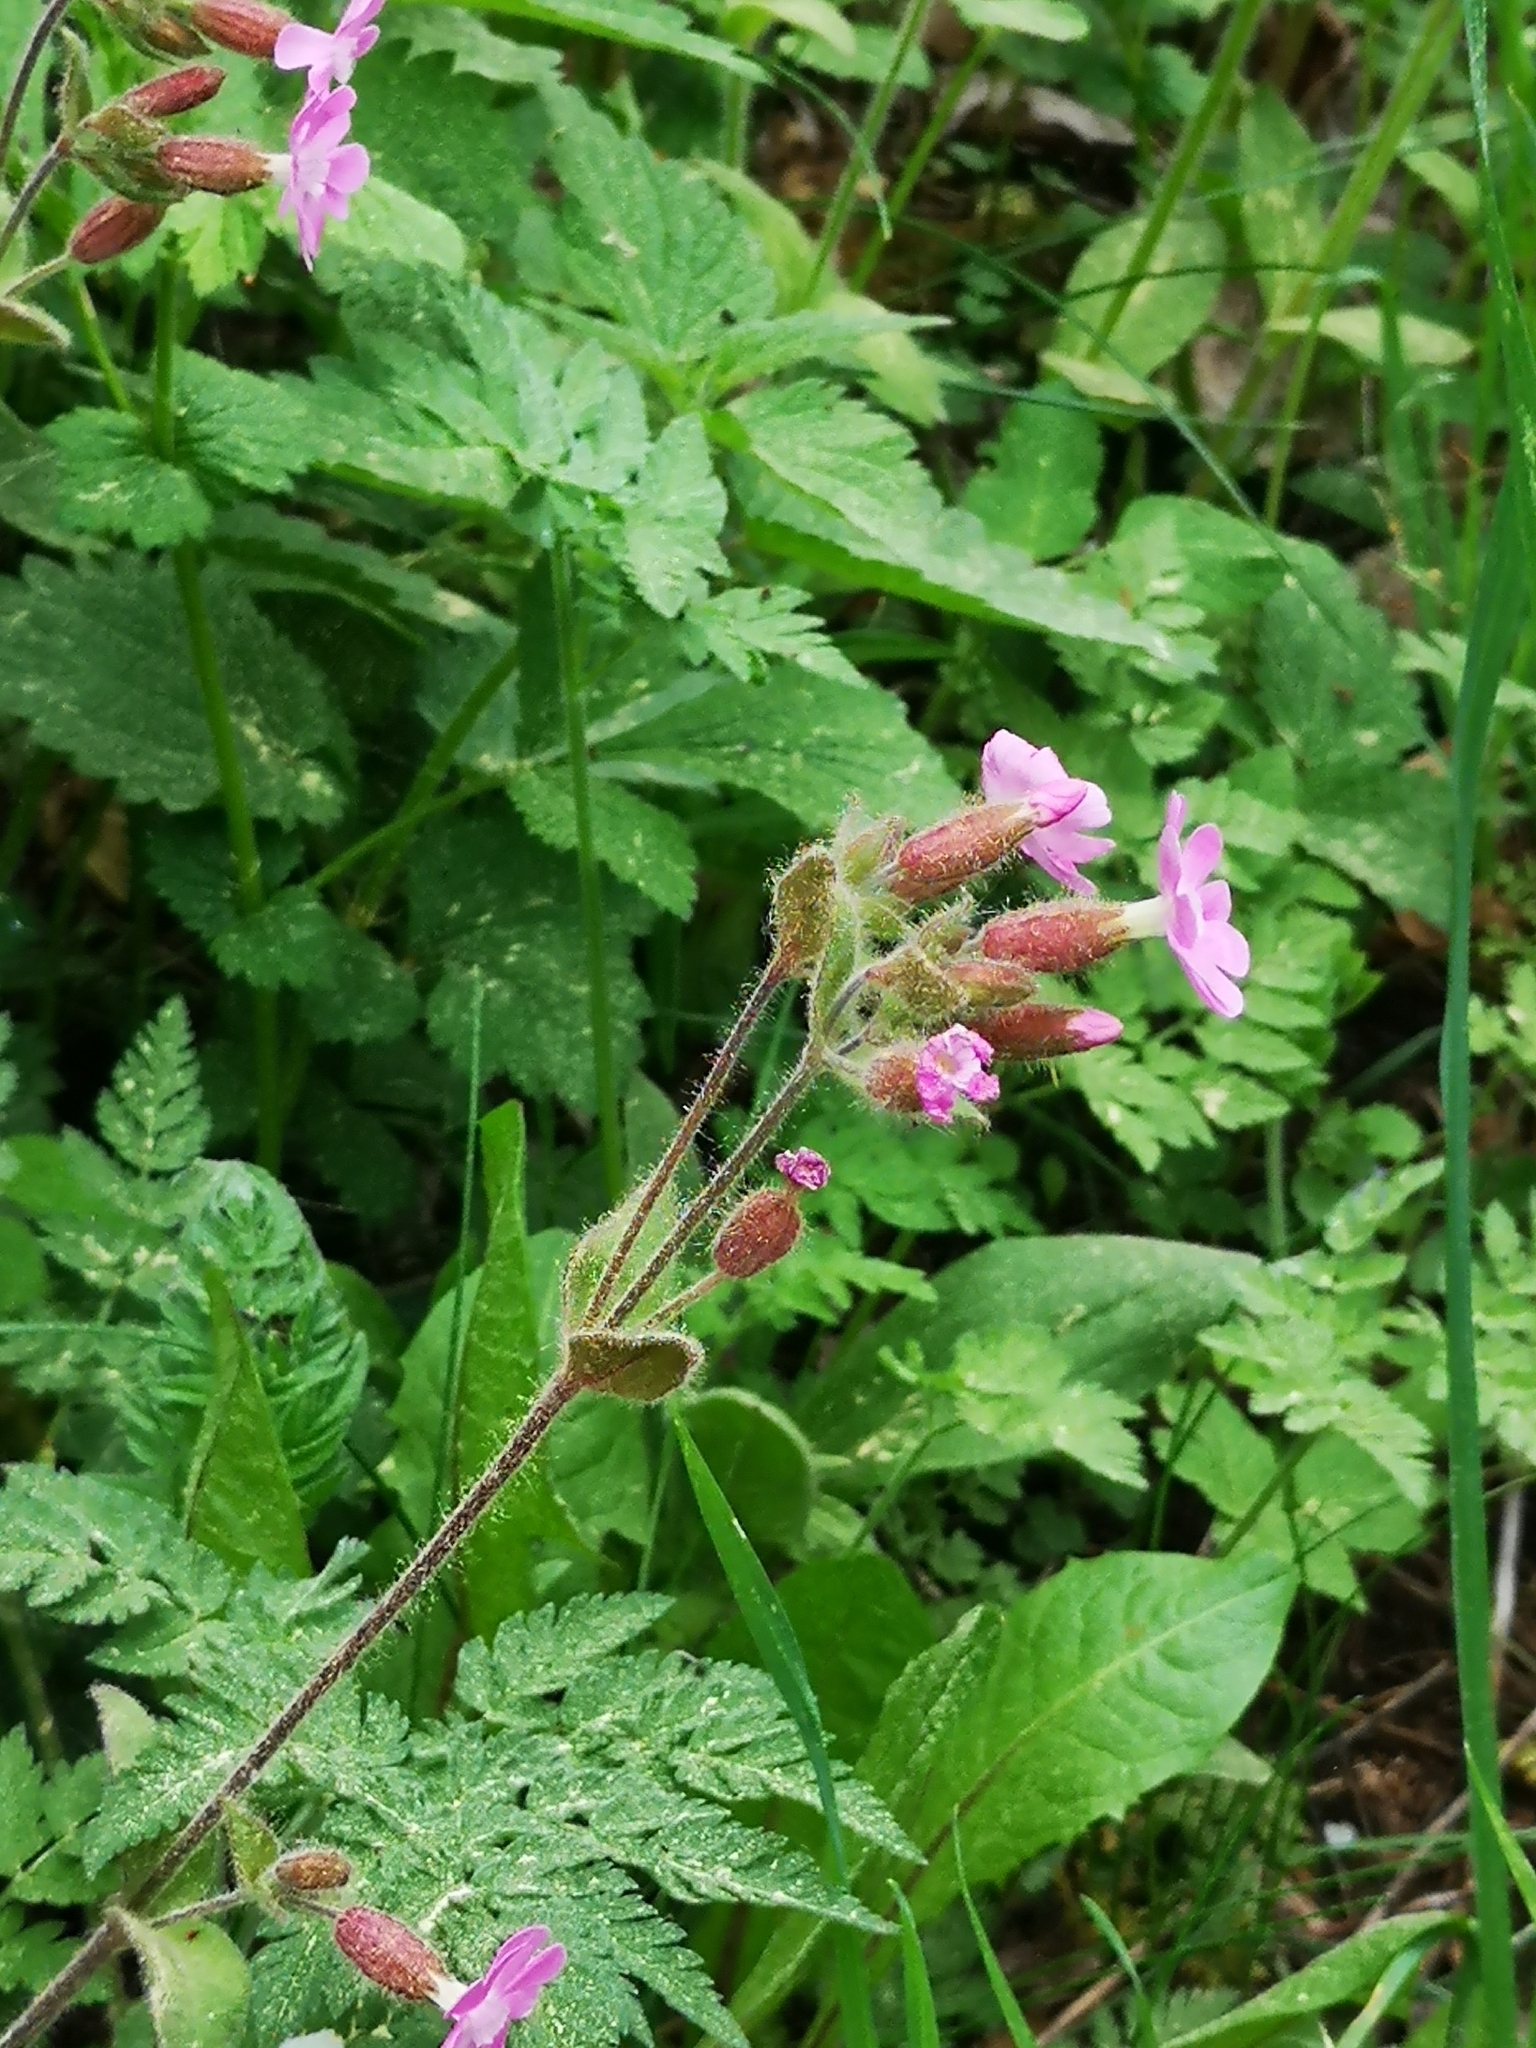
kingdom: Plantae
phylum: Tracheophyta
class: Magnoliopsida
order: Caryophyllales
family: Caryophyllaceae
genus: Silene
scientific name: Silene dioica
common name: Red campion
